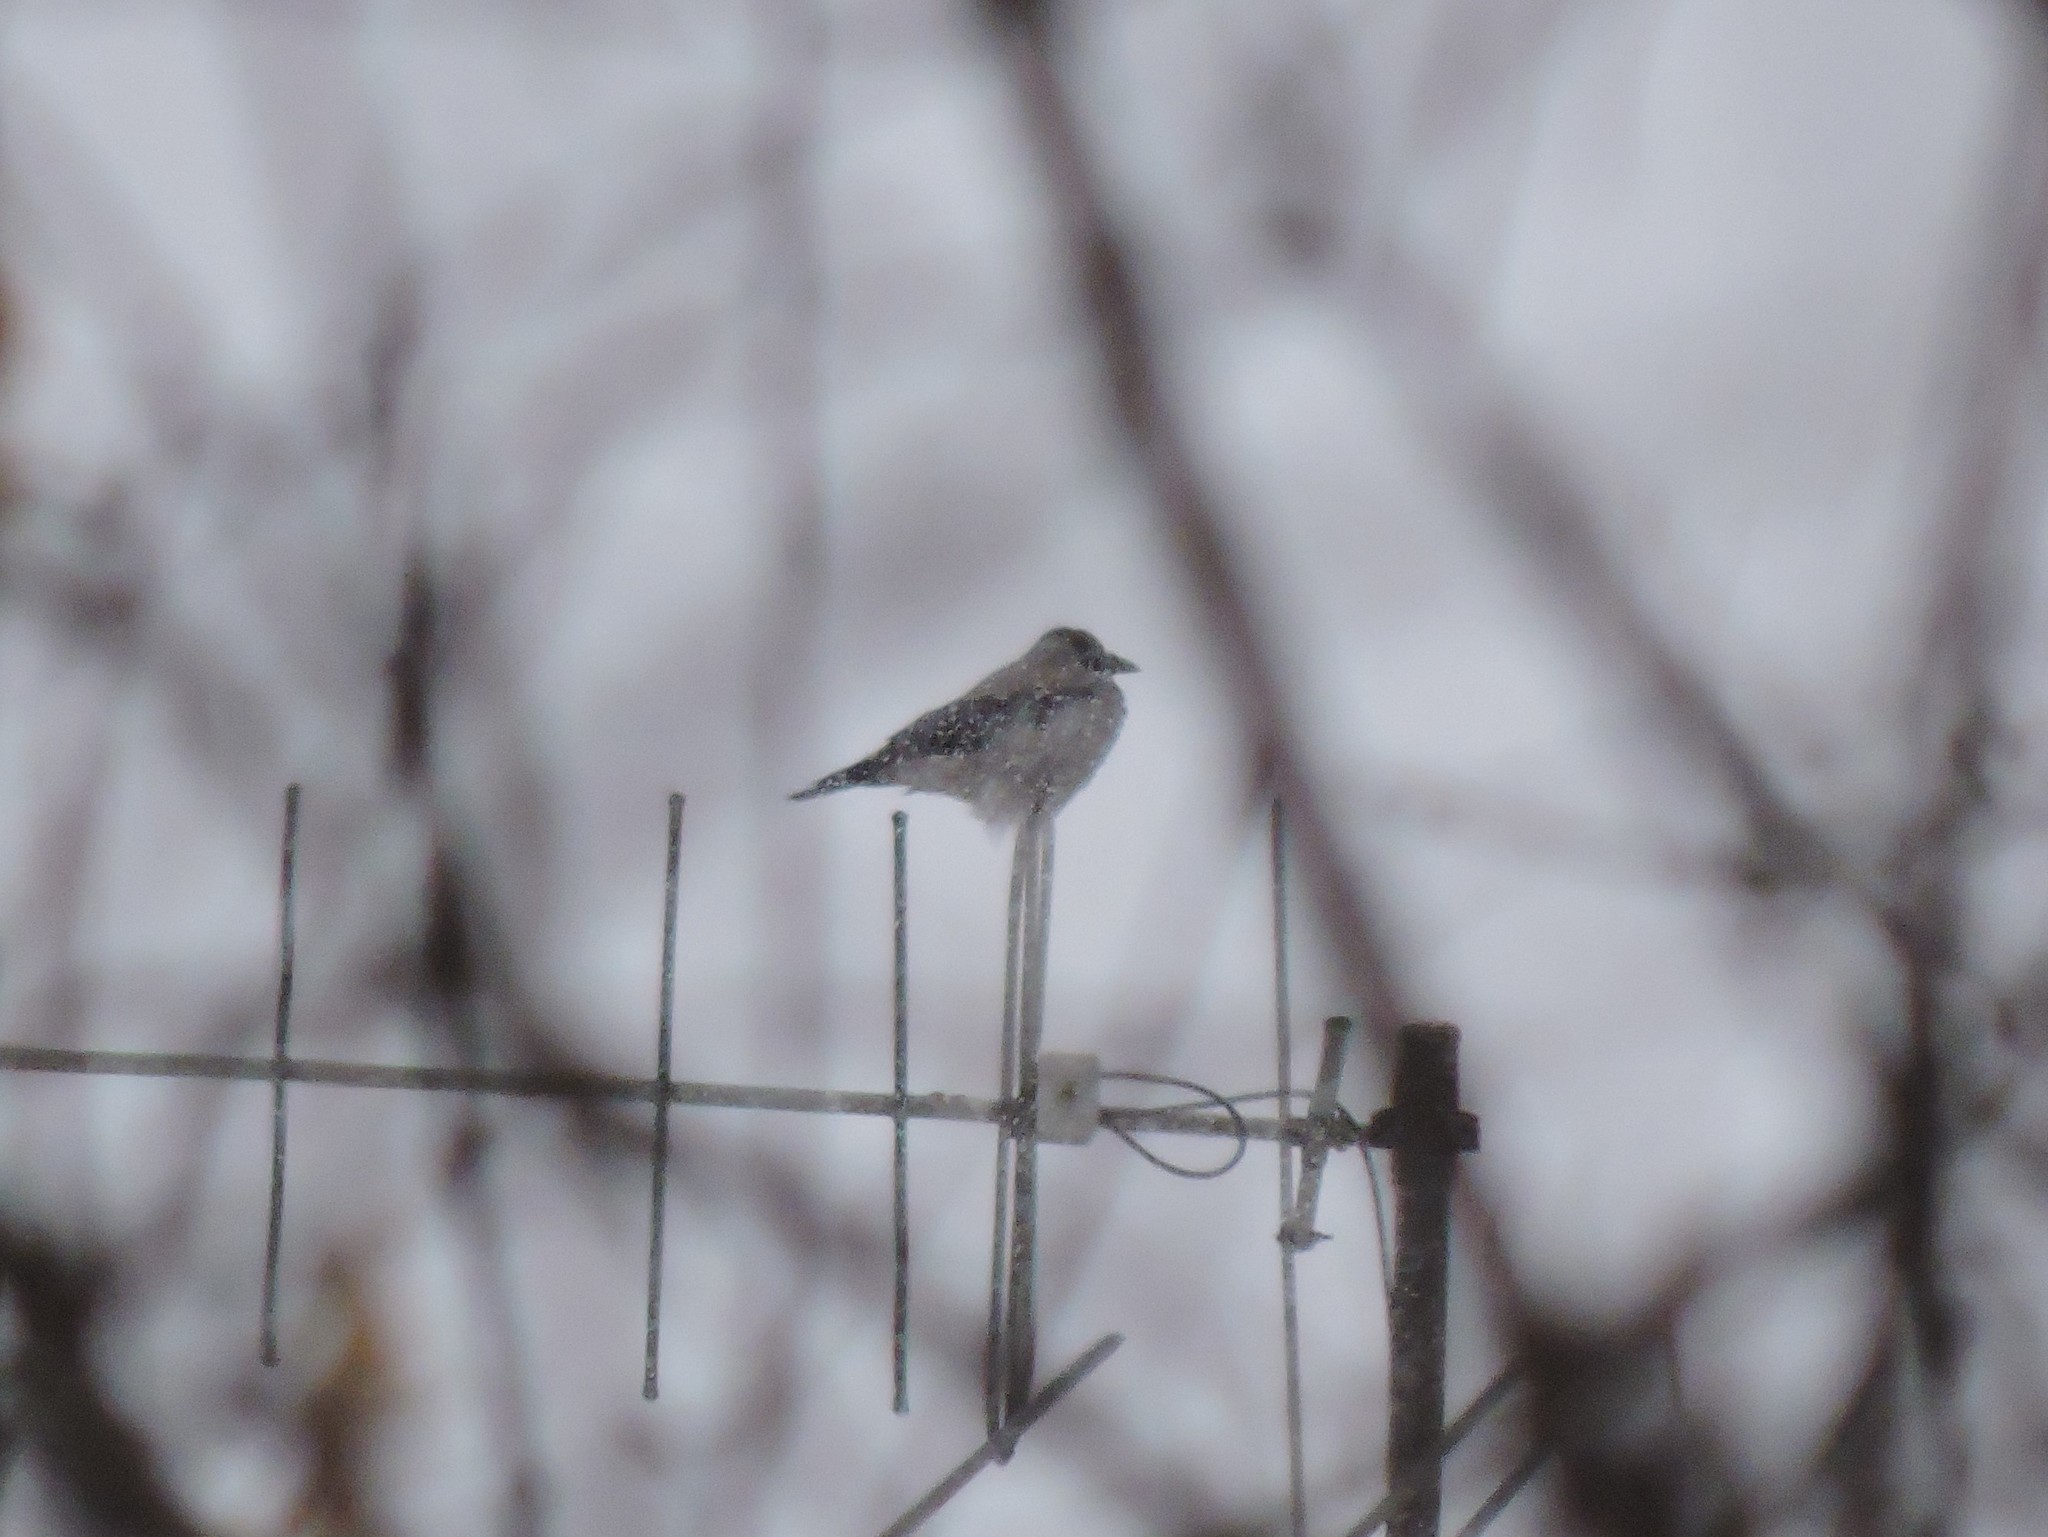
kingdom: Animalia
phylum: Chordata
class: Aves
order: Passeriformes
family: Corvidae
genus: Corvus
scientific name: Corvus cornix
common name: Hooded crow
